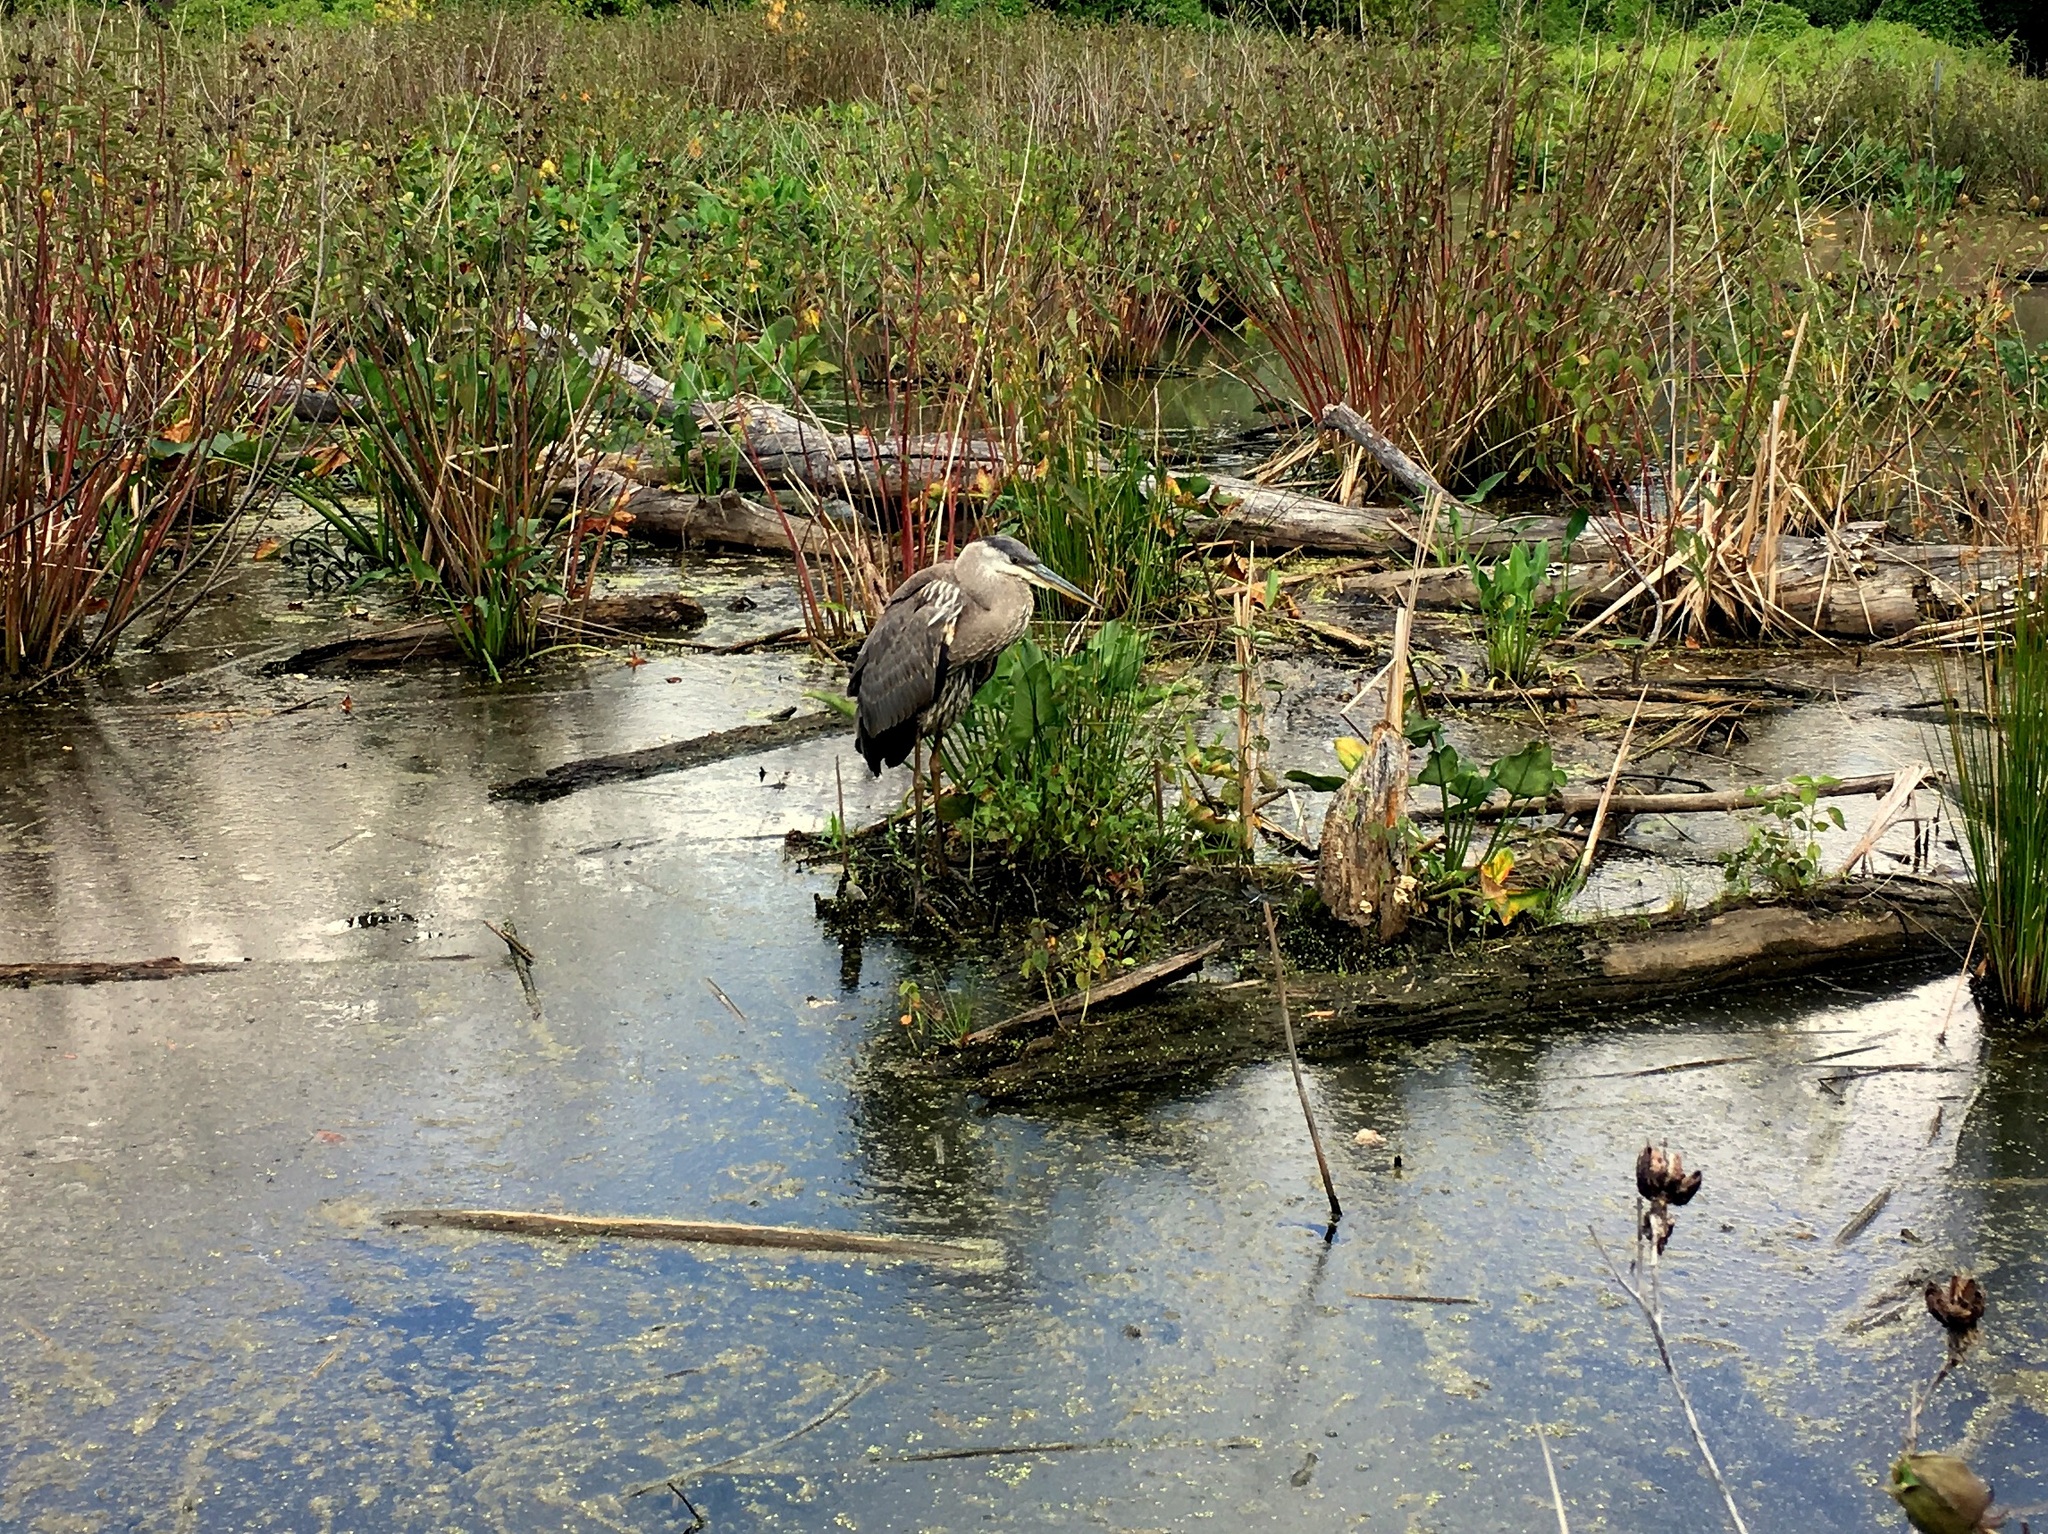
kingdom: Animalia
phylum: Chordata
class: Aves
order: Pelecaniformes
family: Ardeidae
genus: Ardea
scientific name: Ardea herodias
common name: Great blue heron
